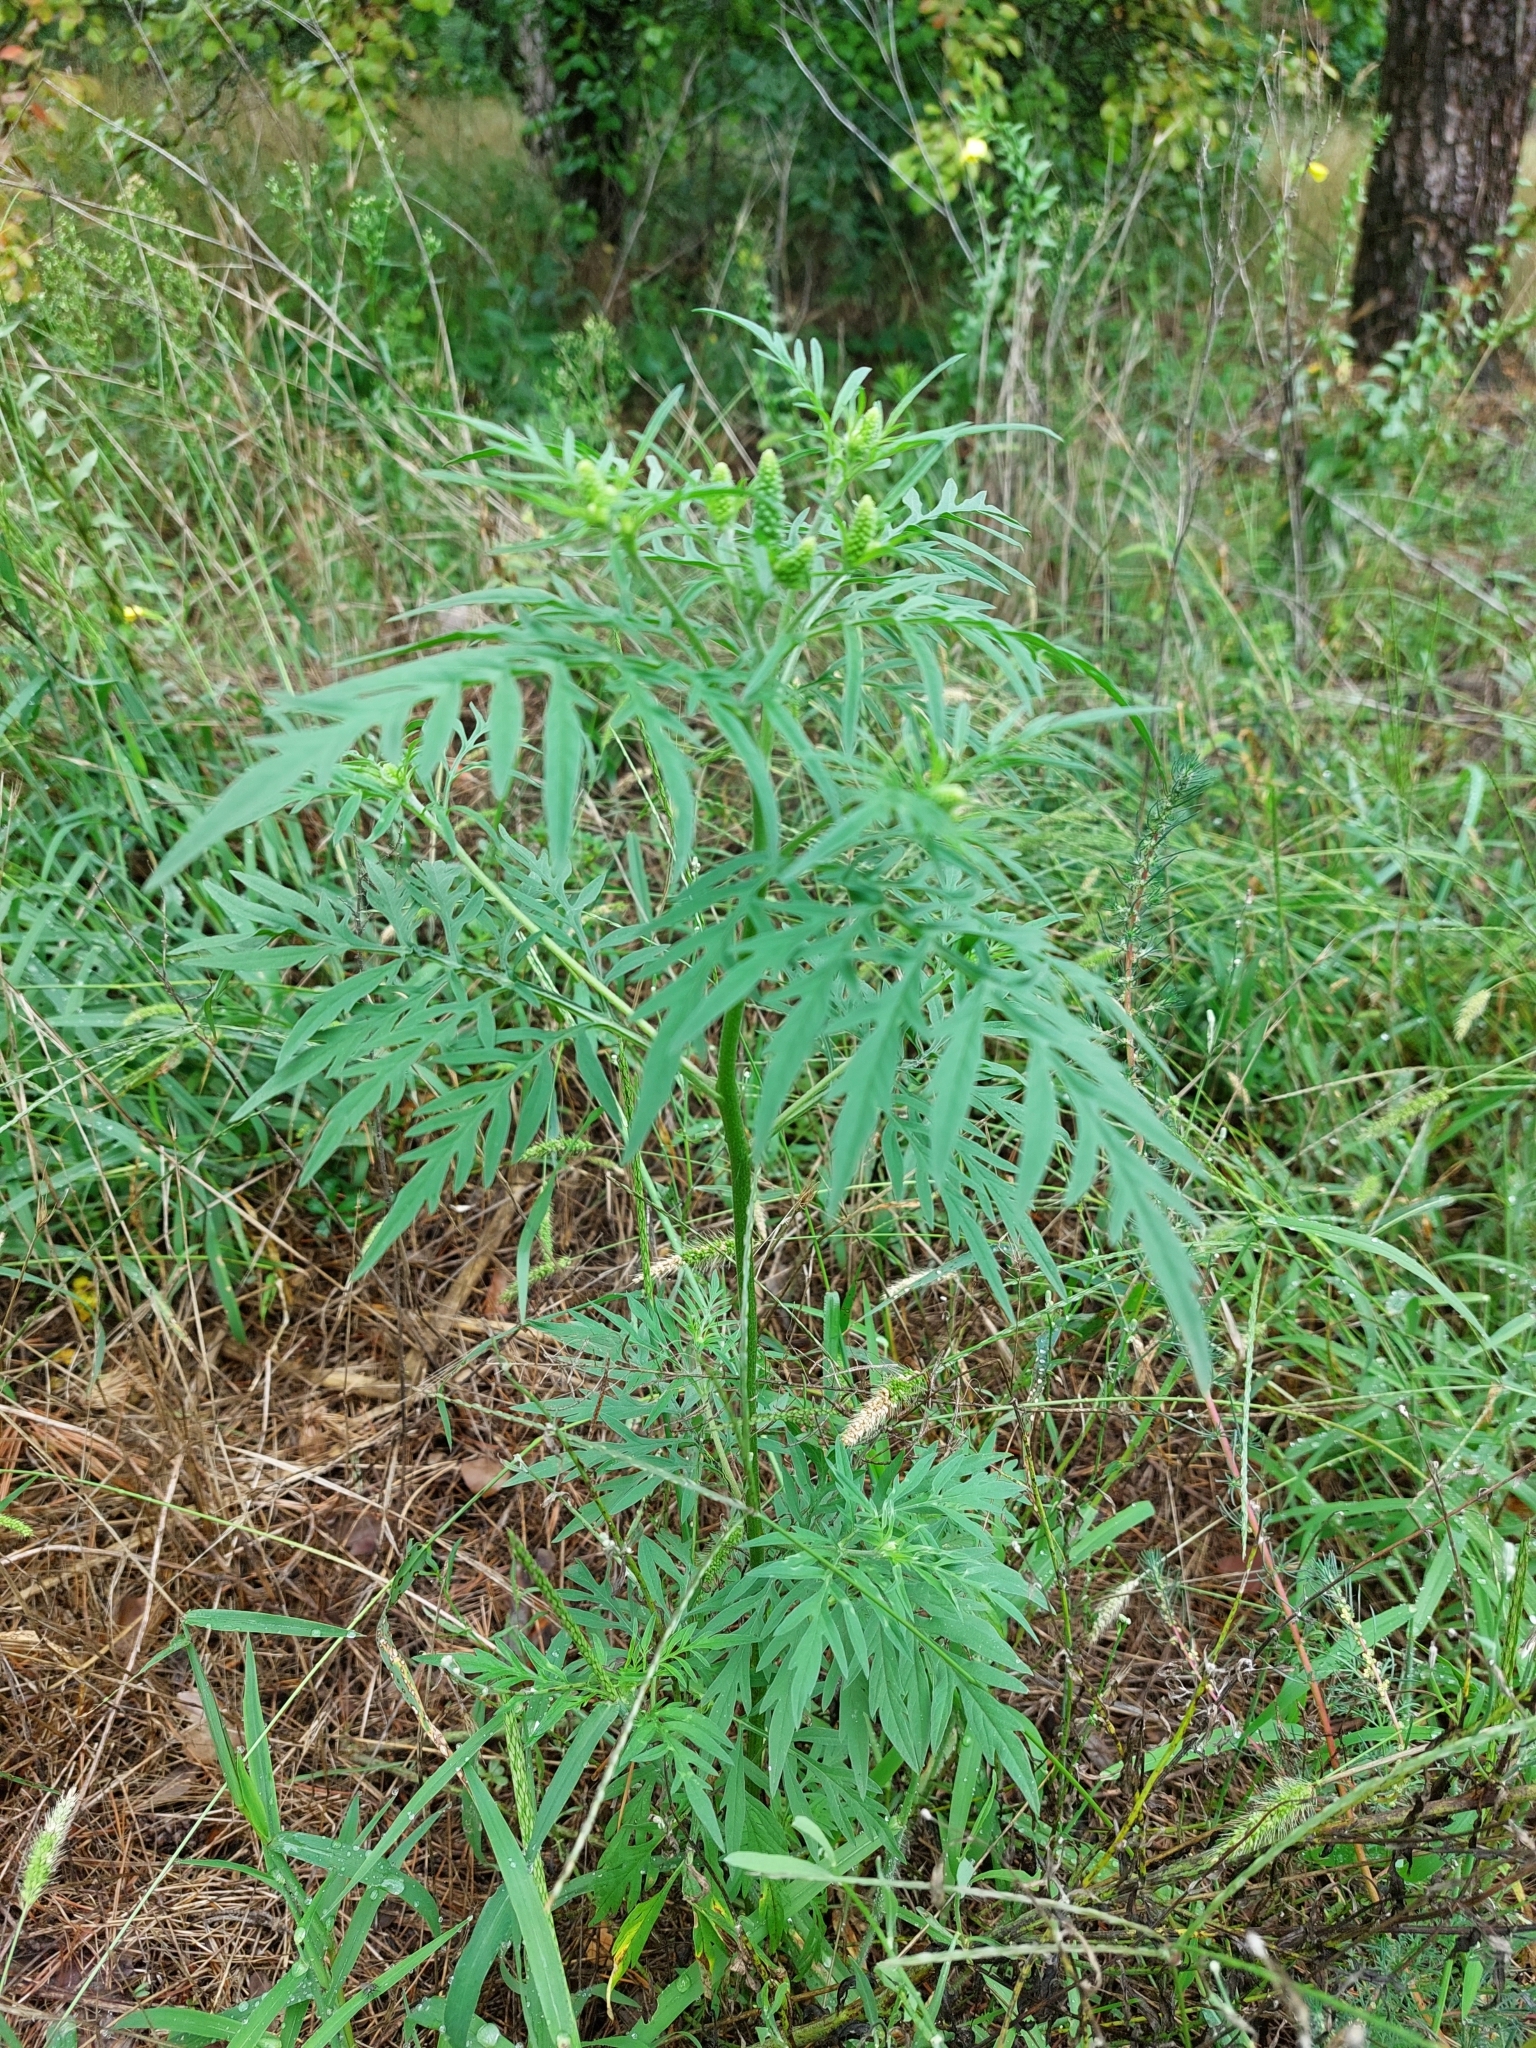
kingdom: Plantae
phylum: Tracheophyta
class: Magnoliopsida
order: Asterales
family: Asteraceae
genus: Ambrosia
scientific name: Ambrosia artemisiifolia
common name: Annual ragweed
